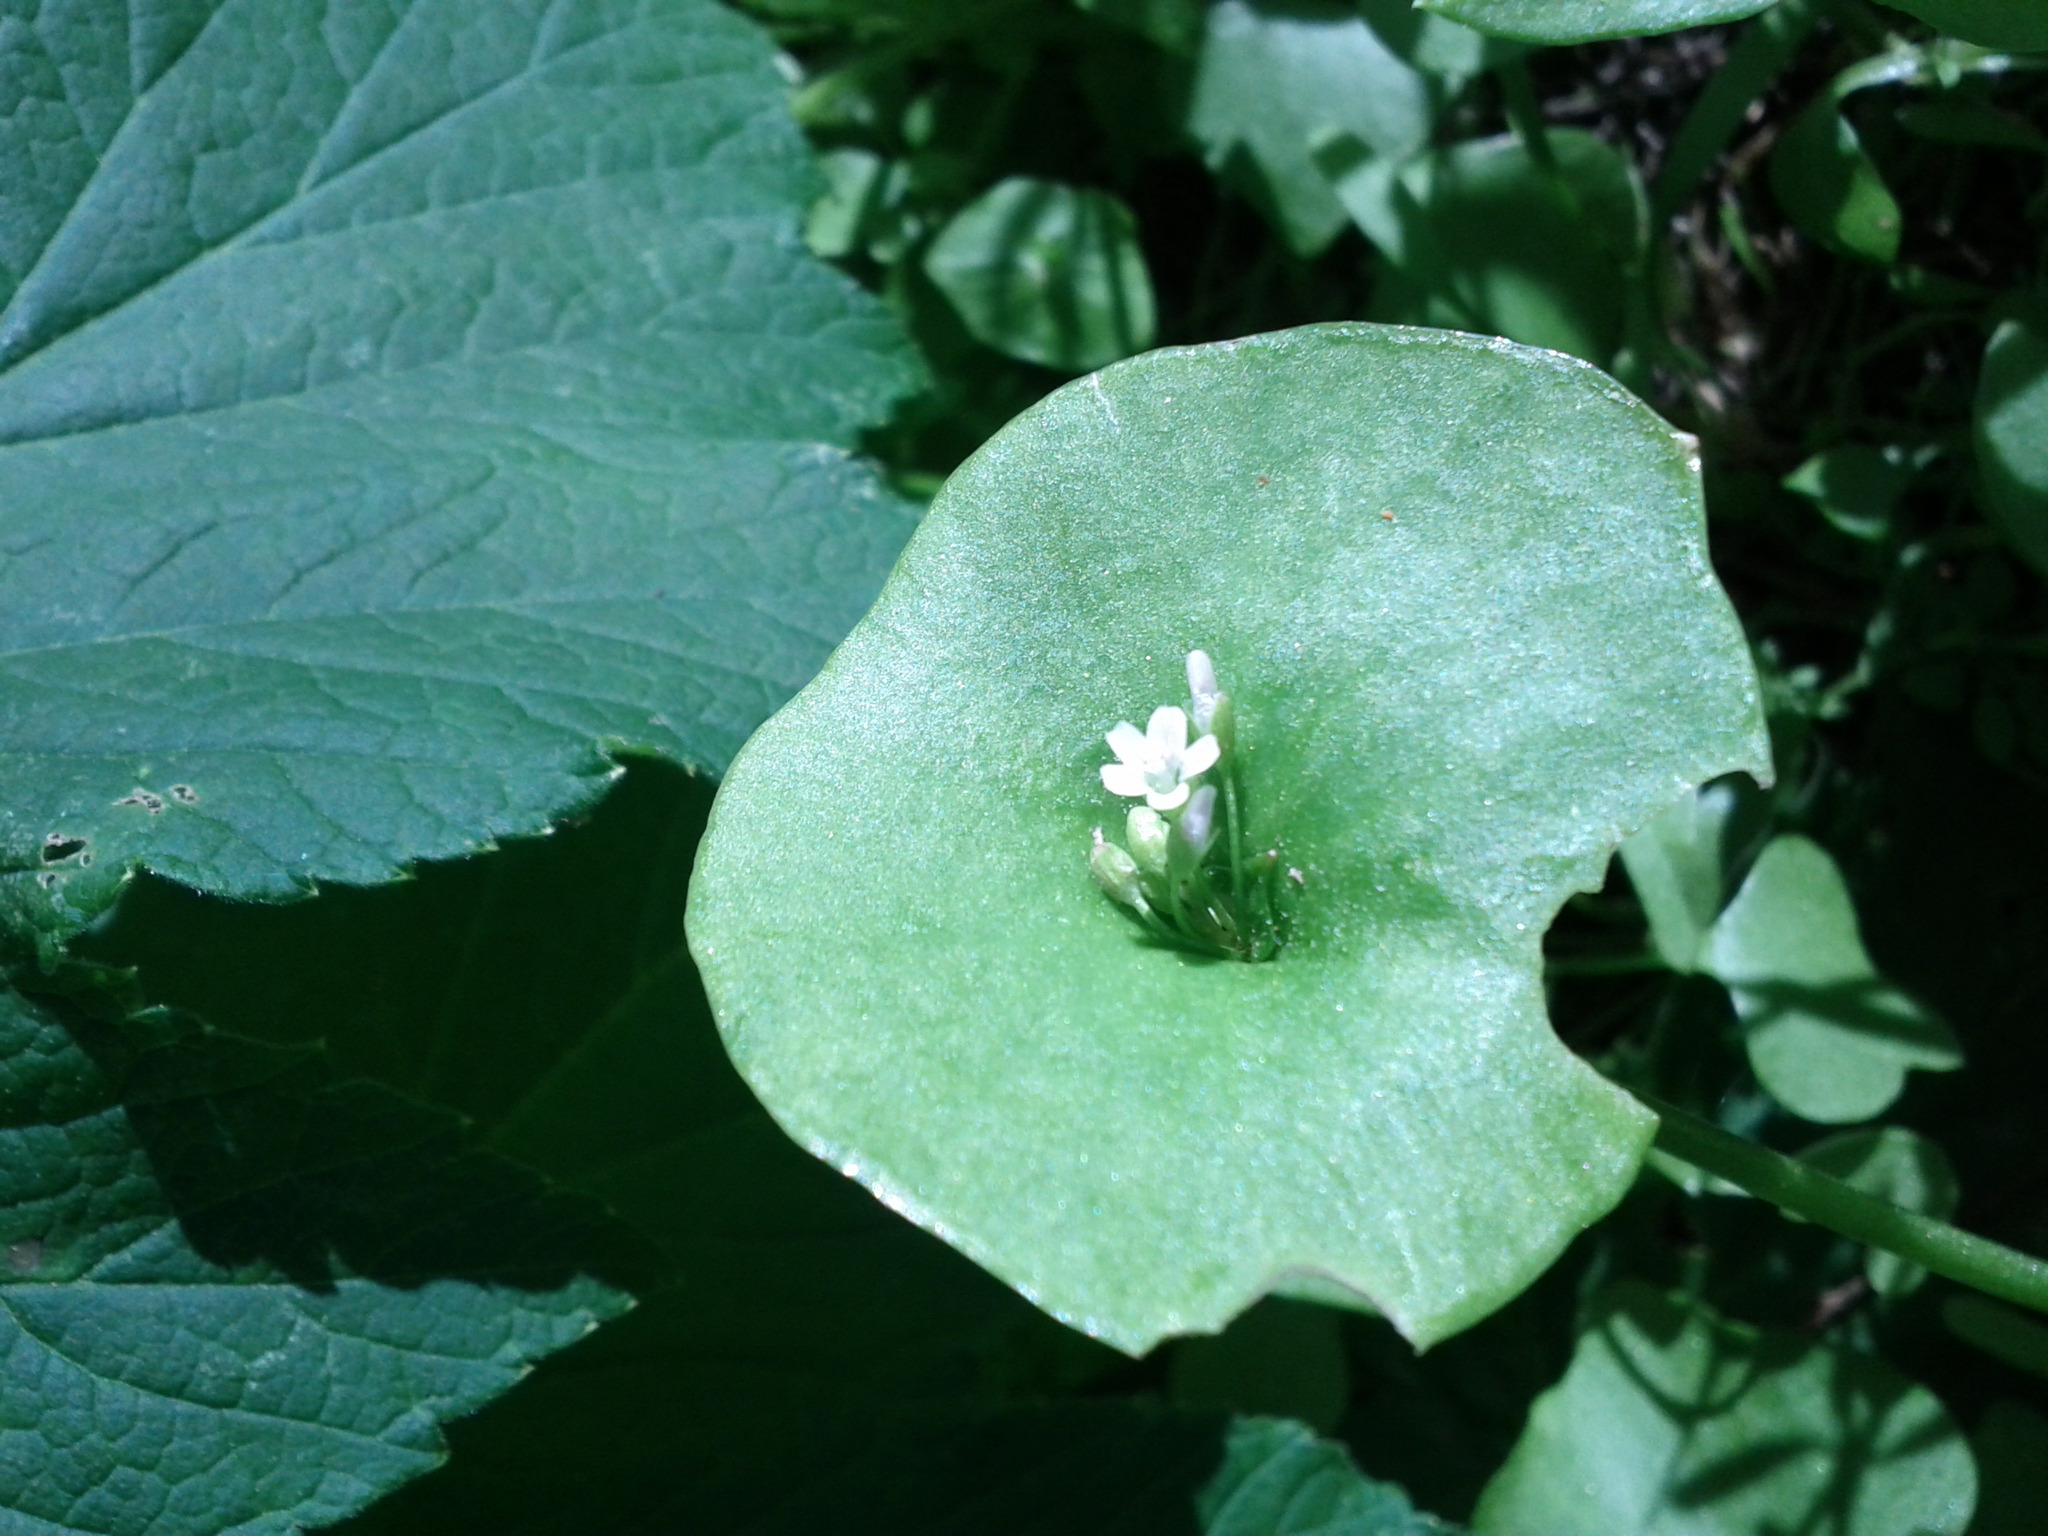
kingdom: Plantae
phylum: Tracheophyta
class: Magnoliopsida
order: Caryophyllales
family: Montiaceae
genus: Claytonia
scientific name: Claytonia perfoliata
